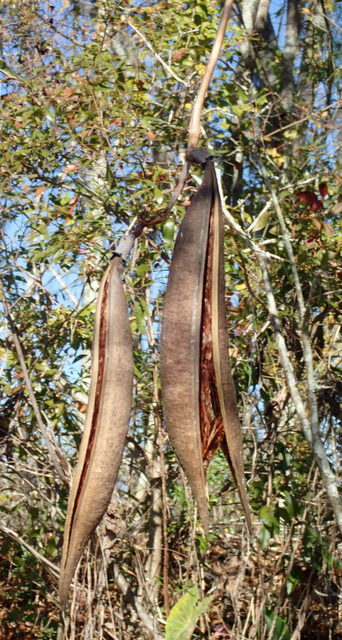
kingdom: Plantae
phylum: Tracheophyta
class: Magnoliopsida
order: Lamiales
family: Bignoniaceae
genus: Campsis
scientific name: Campsis radicans
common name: Trumpet-creeper
